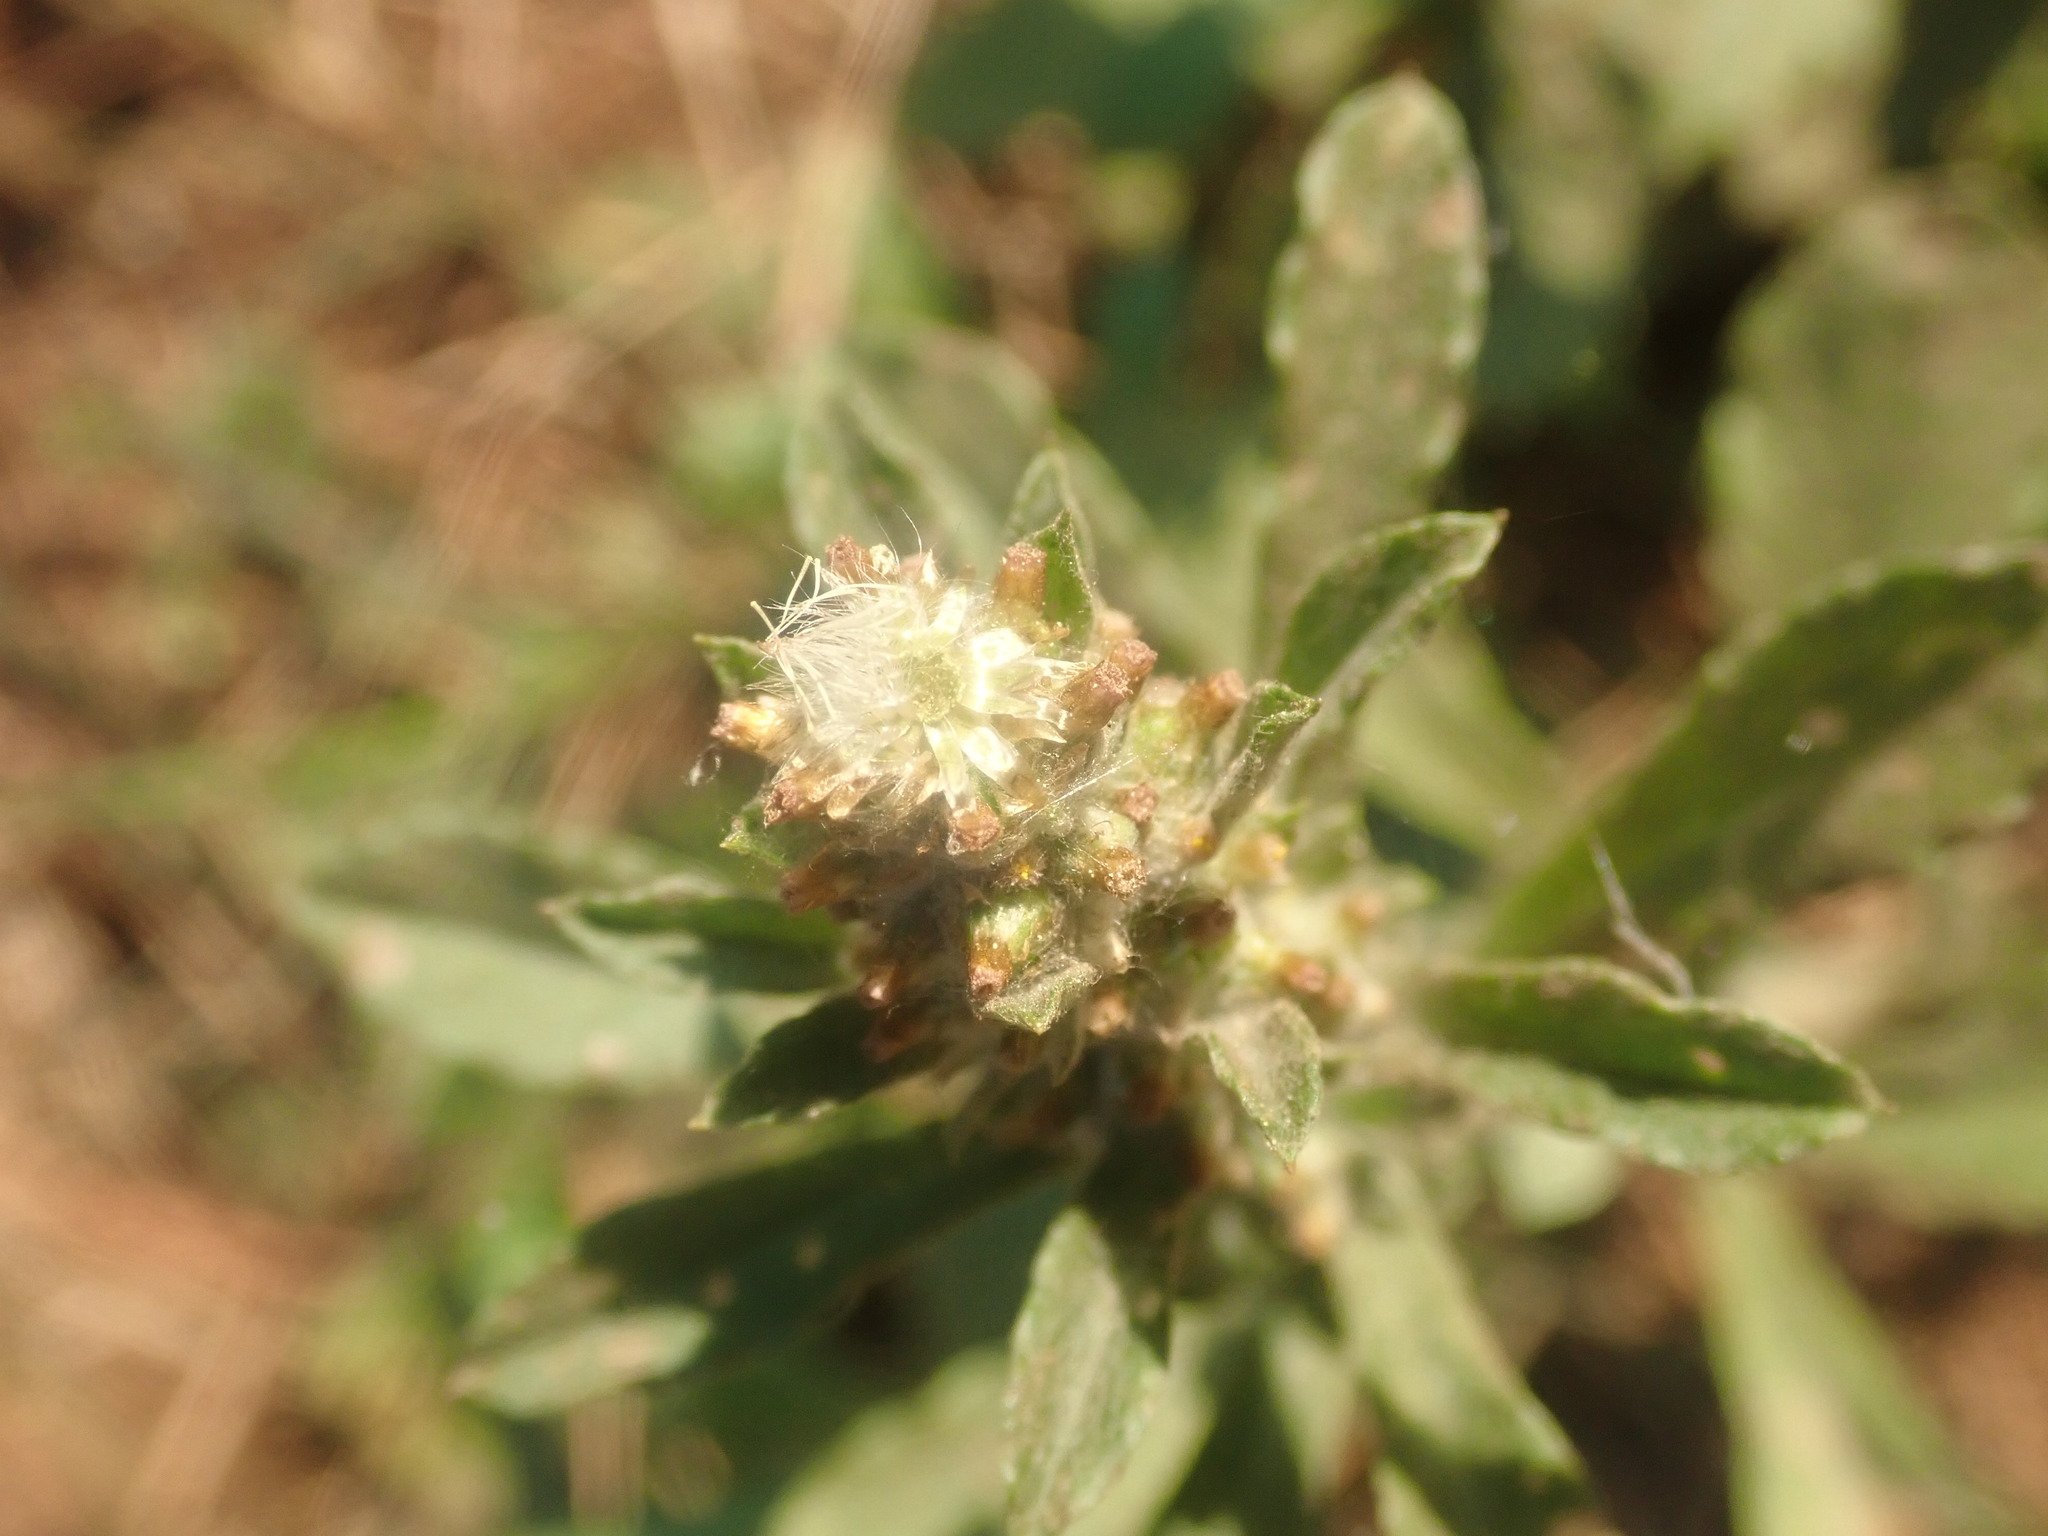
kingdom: Plantae
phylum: Tracheophyta
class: Magnoliopsida
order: Asterales
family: Asteraceae
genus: Gamochaeta
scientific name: Gamochaeta pensylvanica
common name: Pennsylvania everlasting
